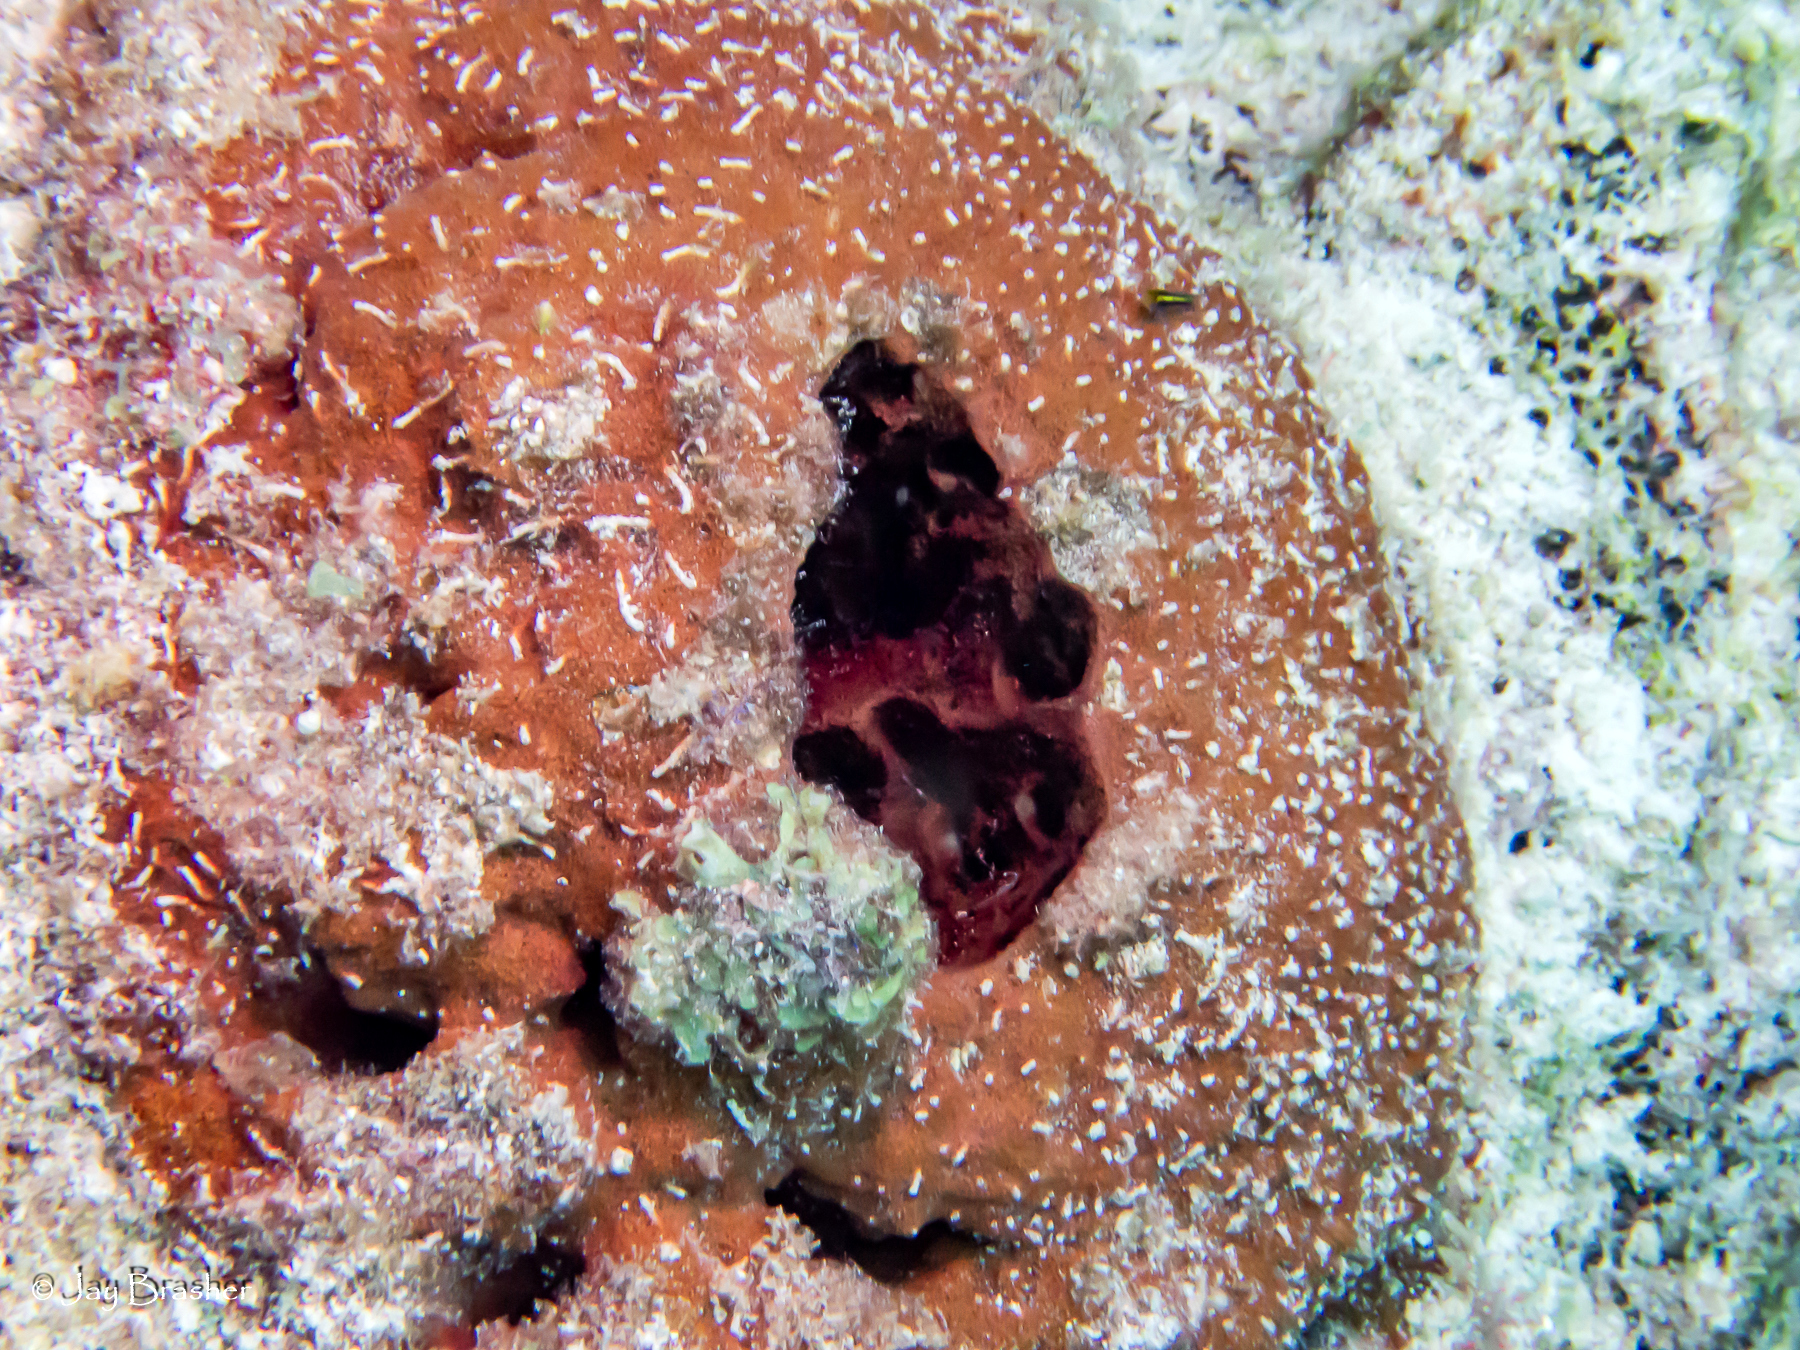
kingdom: Animalia
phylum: Porifera
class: Demospongiae
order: Biemnida
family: Biemnidae
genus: Neofibularia
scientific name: Neofibularia nolitangere
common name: Do-not-touch-me sponge
